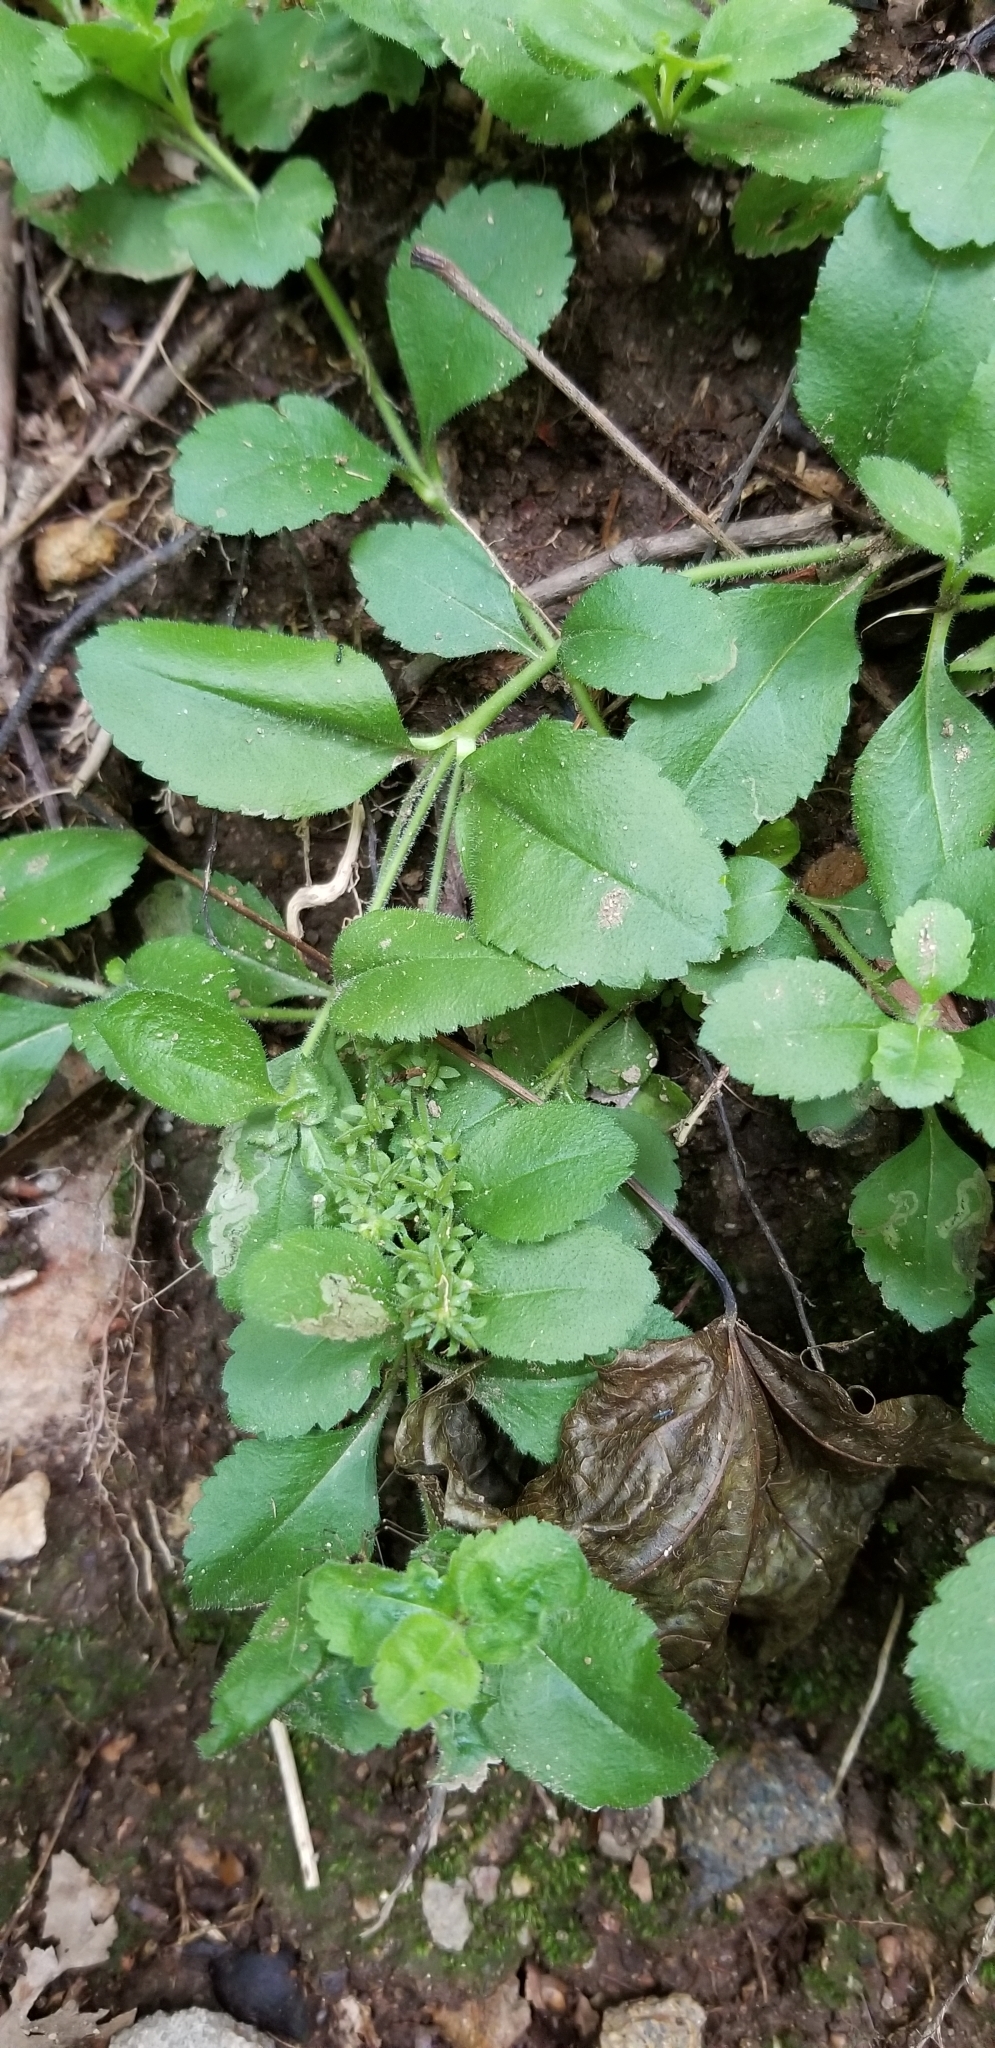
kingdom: Plantae
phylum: Tracheophyta
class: Magnoliopsida
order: Lamiales
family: Plantaginaceae
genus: Veronica
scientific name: Veronica officinalis
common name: Common speedwell
